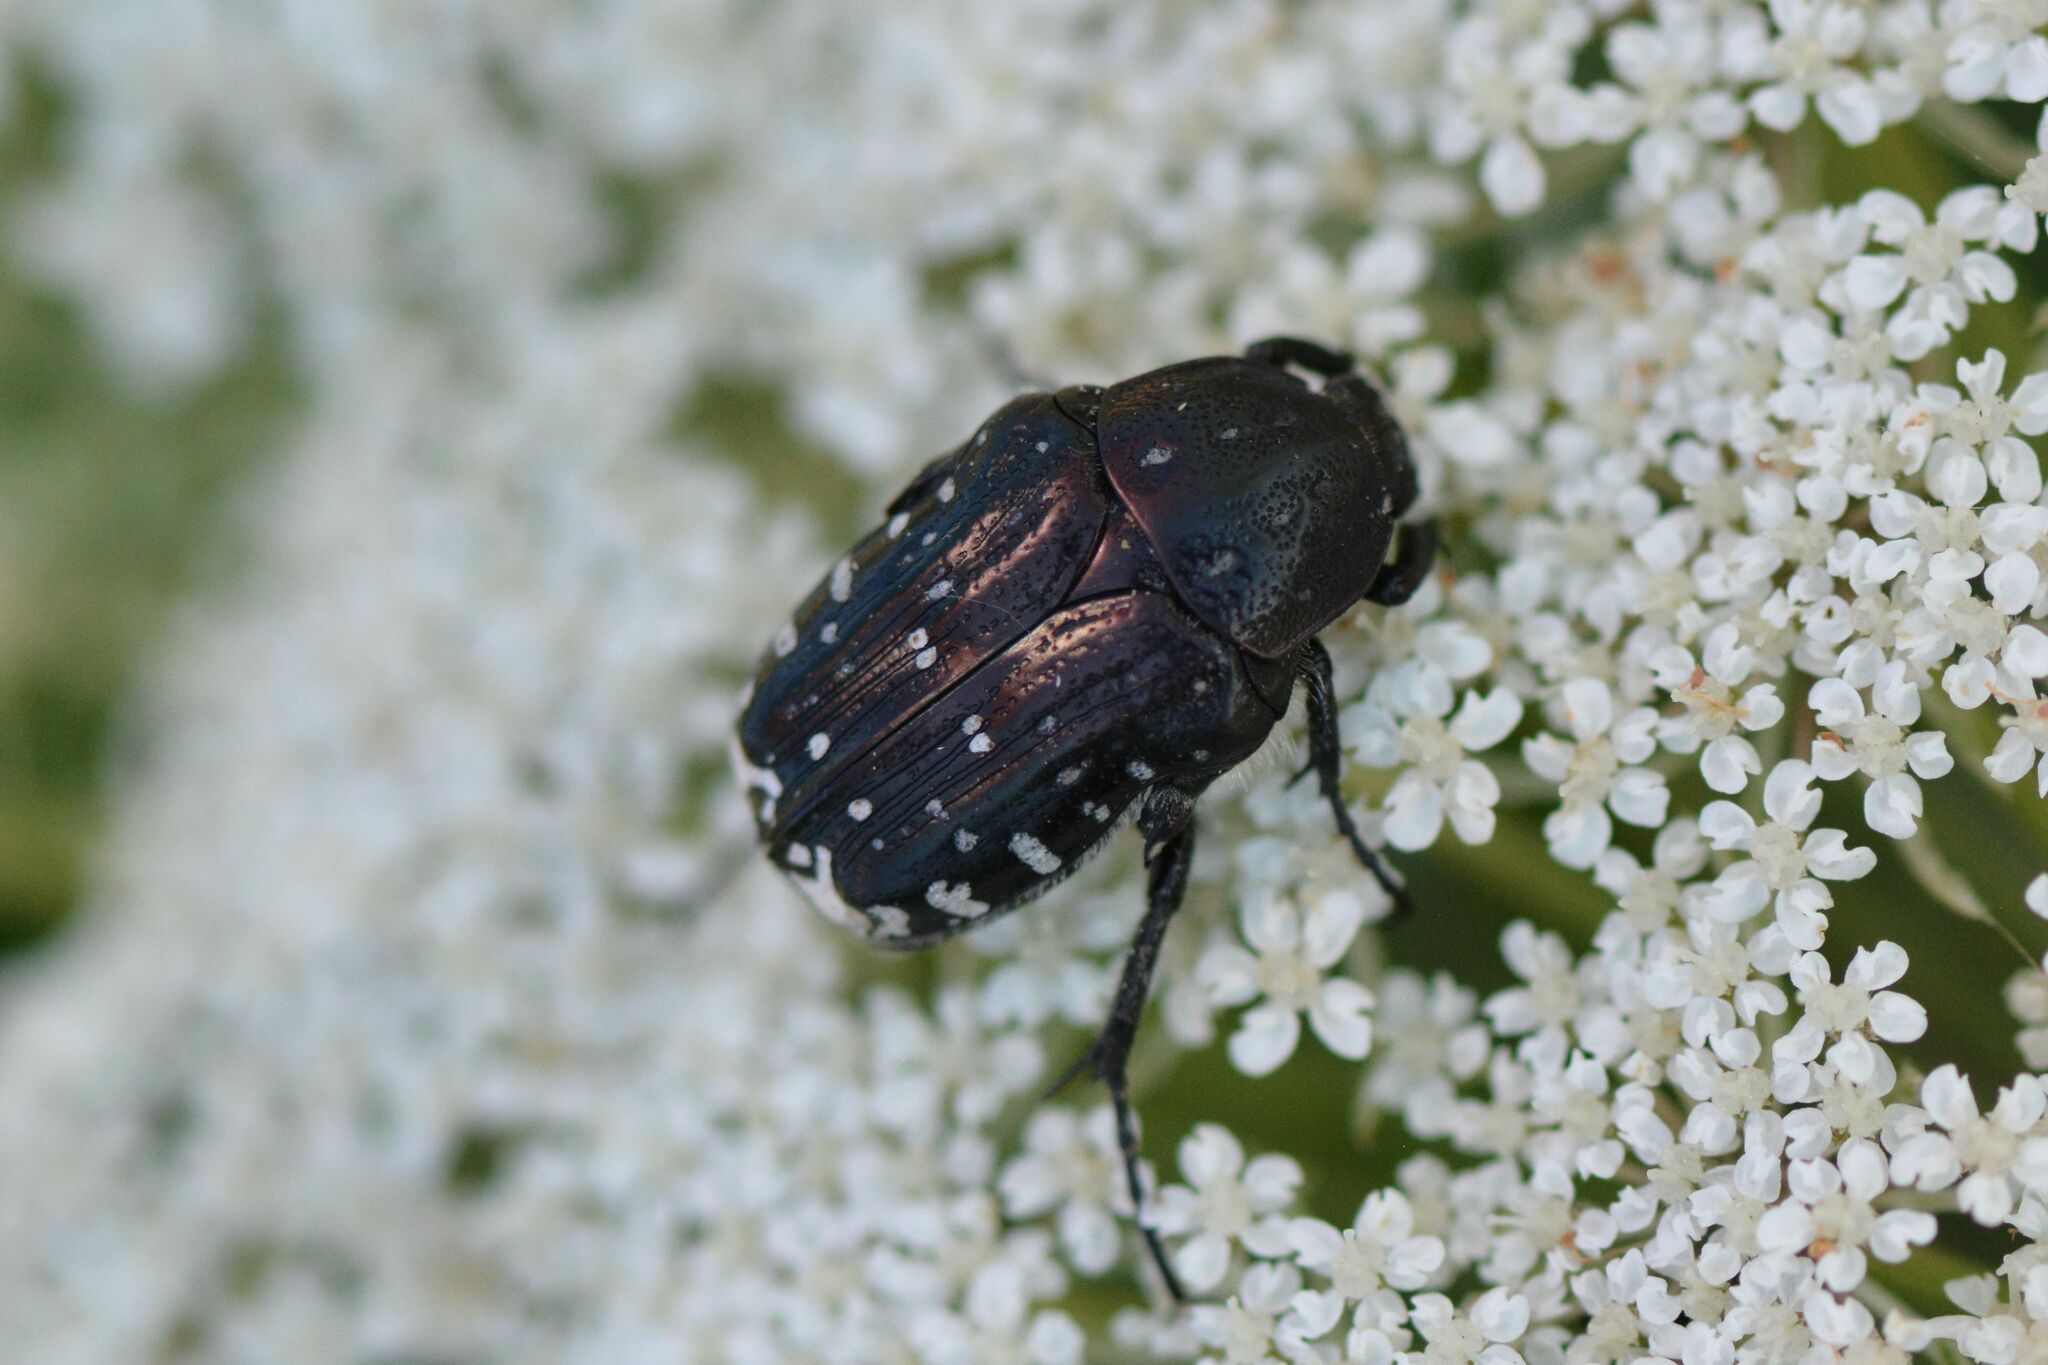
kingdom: Animalia
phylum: Arthropoda
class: Insecta
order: Coleoptera
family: Scarabaeidae
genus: Oxythyrea
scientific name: Oxythyrea funesta
